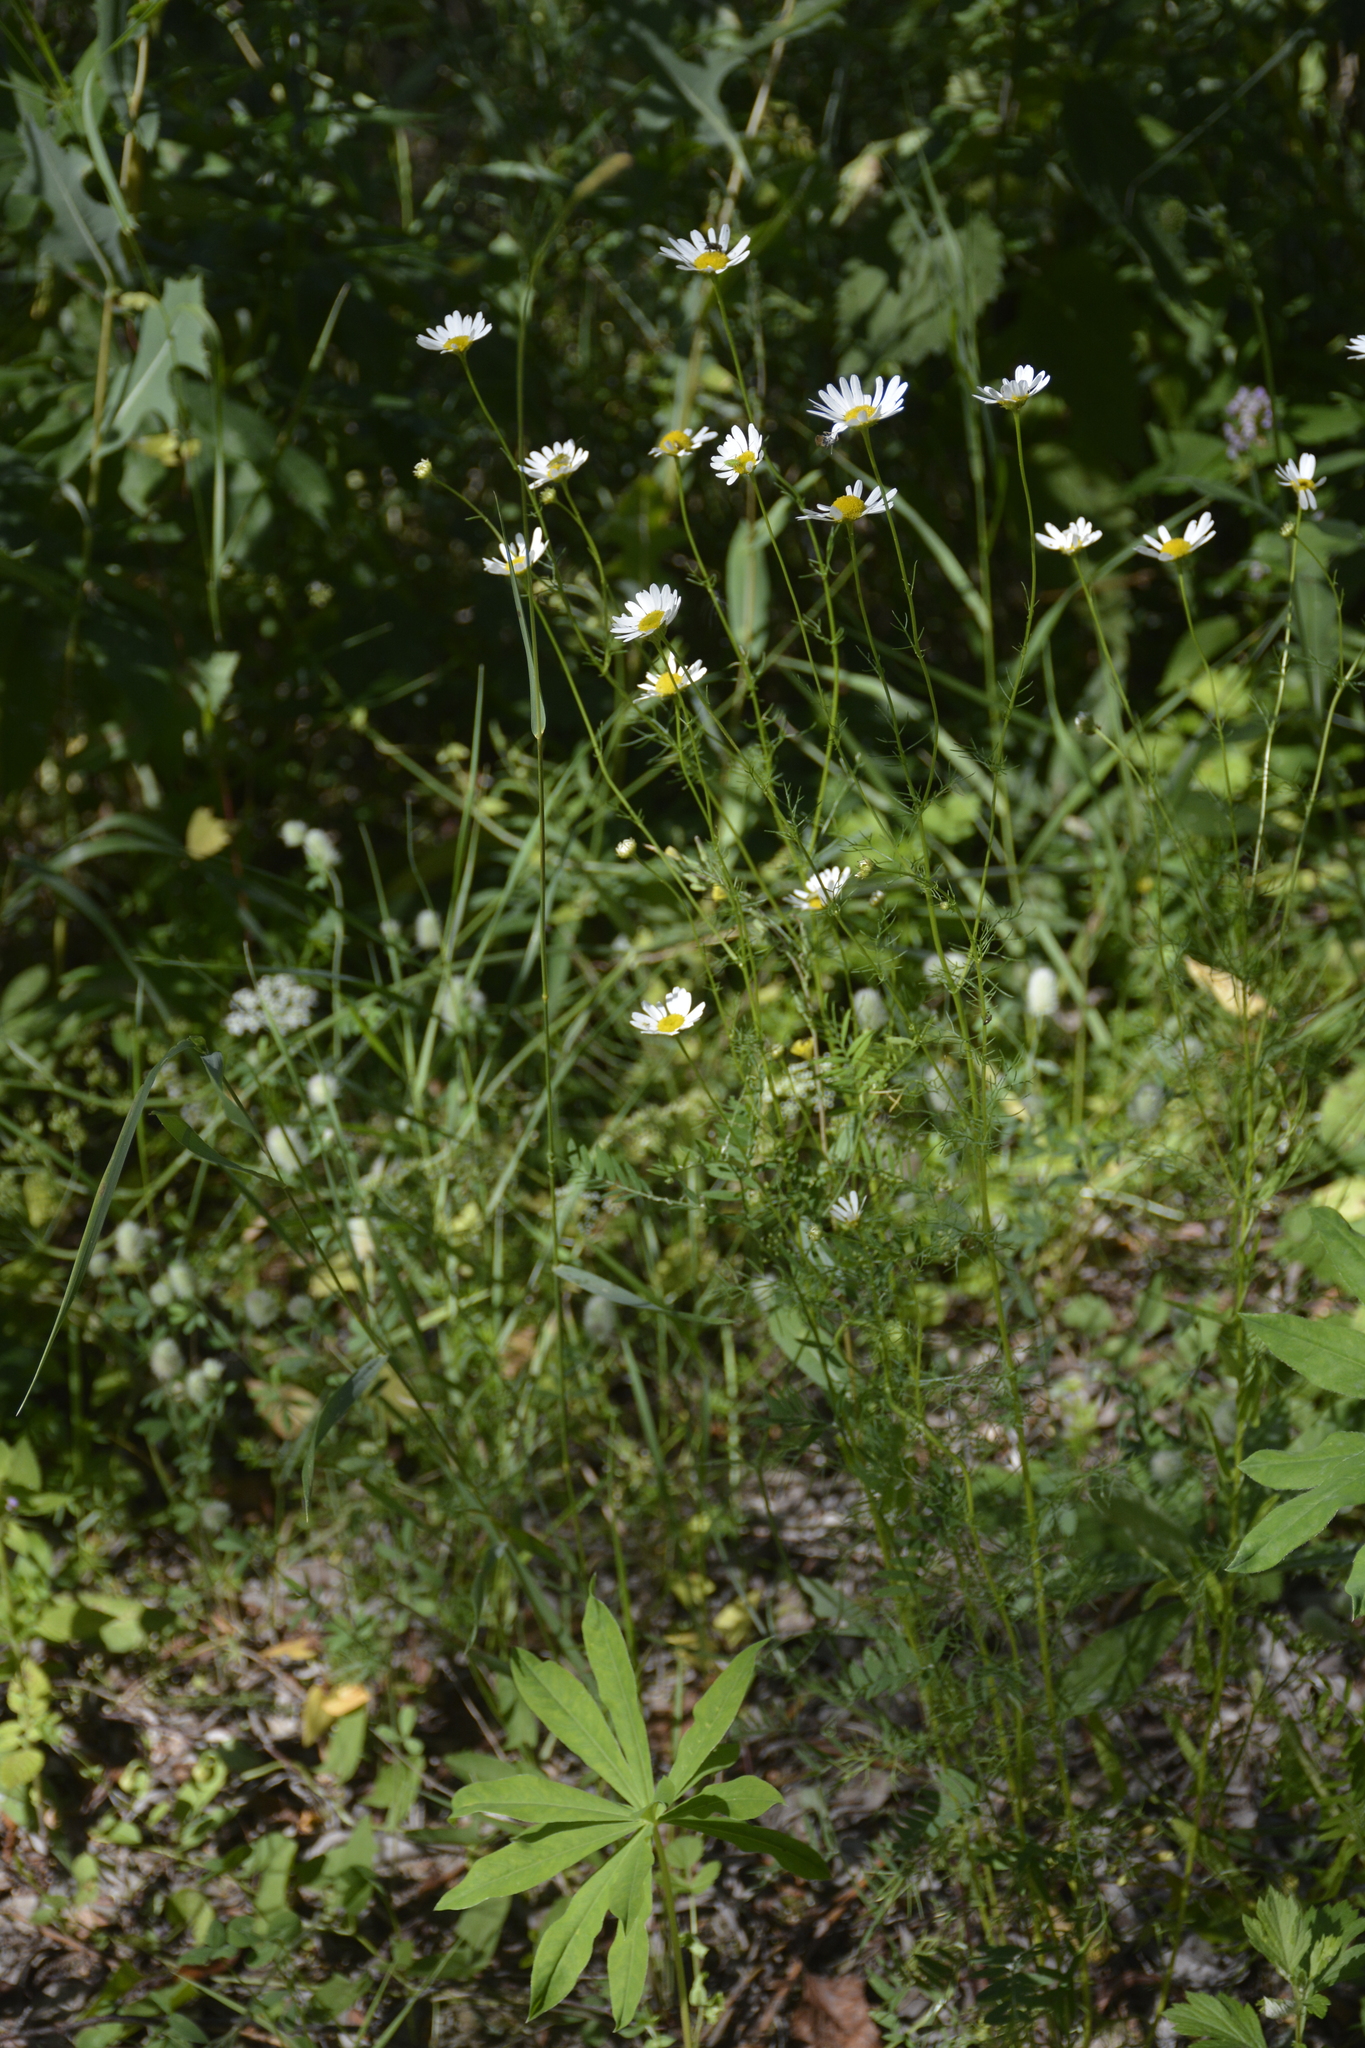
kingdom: Plantae
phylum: Tracheophyta
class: Magnoliopsida
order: Asterales
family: Asteraceae
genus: Tripleurospermum
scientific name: Tripleurospermum inodorum
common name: Scentless mayweed
